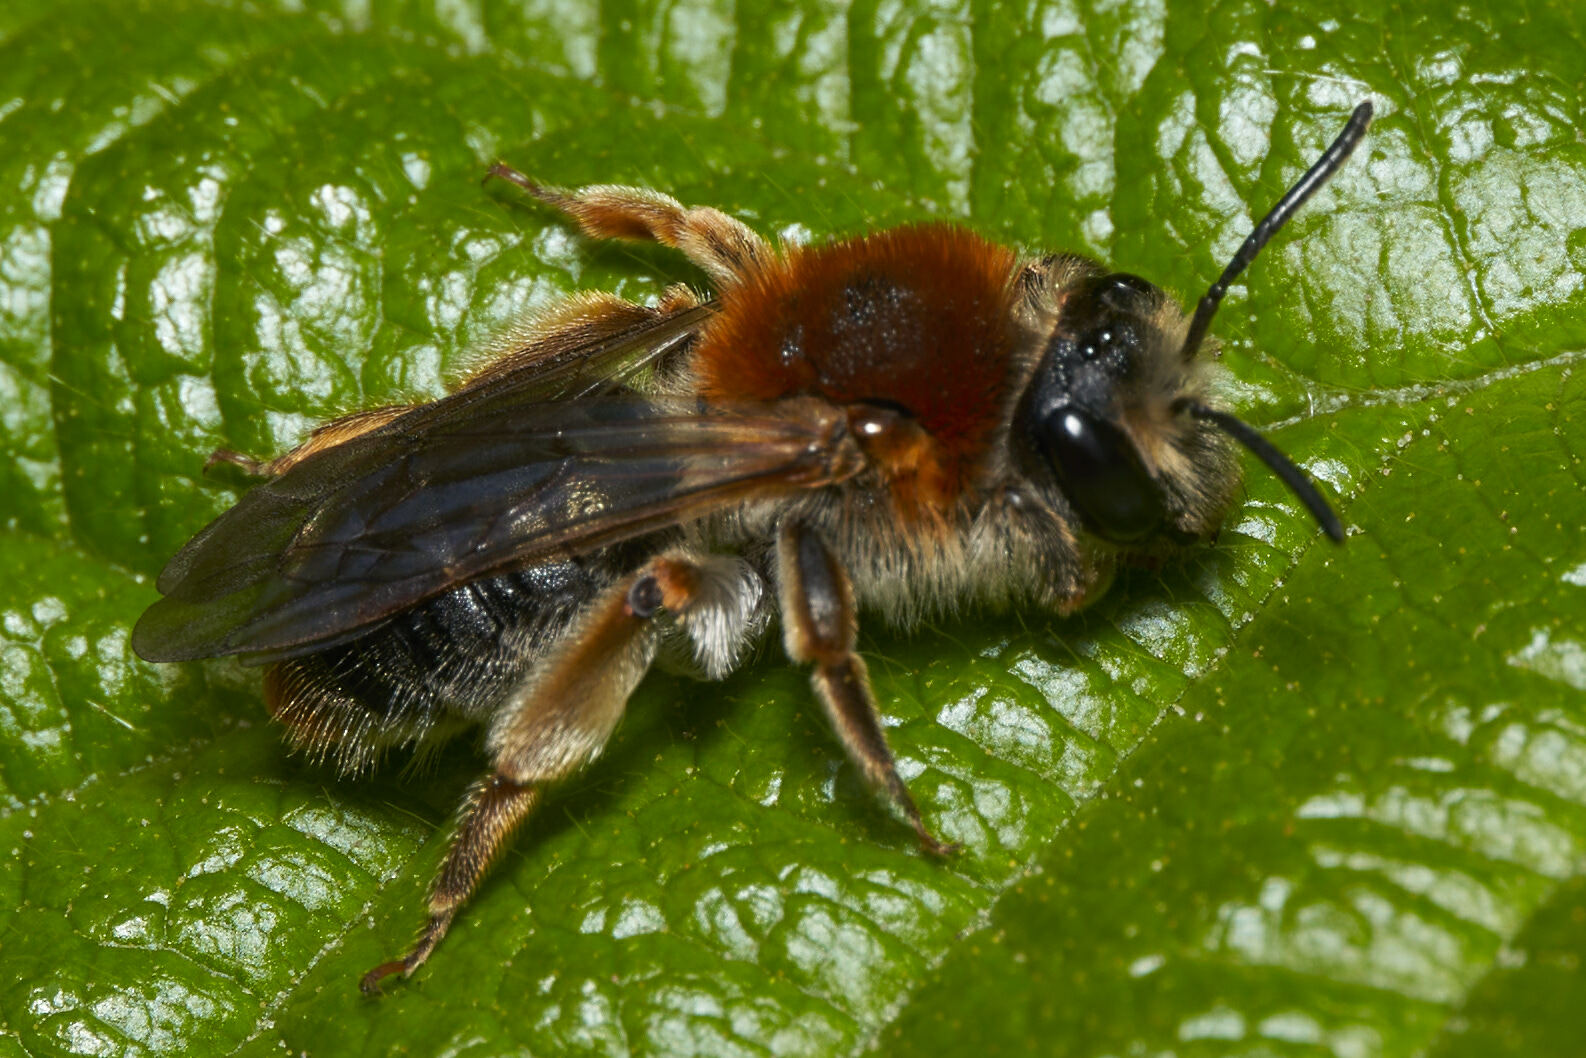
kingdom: Animalia
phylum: Arthropoda
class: Insecta
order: Hymenoptera
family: Andrenidae
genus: Andrena
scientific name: Andrena haemorrhoa
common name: Early mining bee
